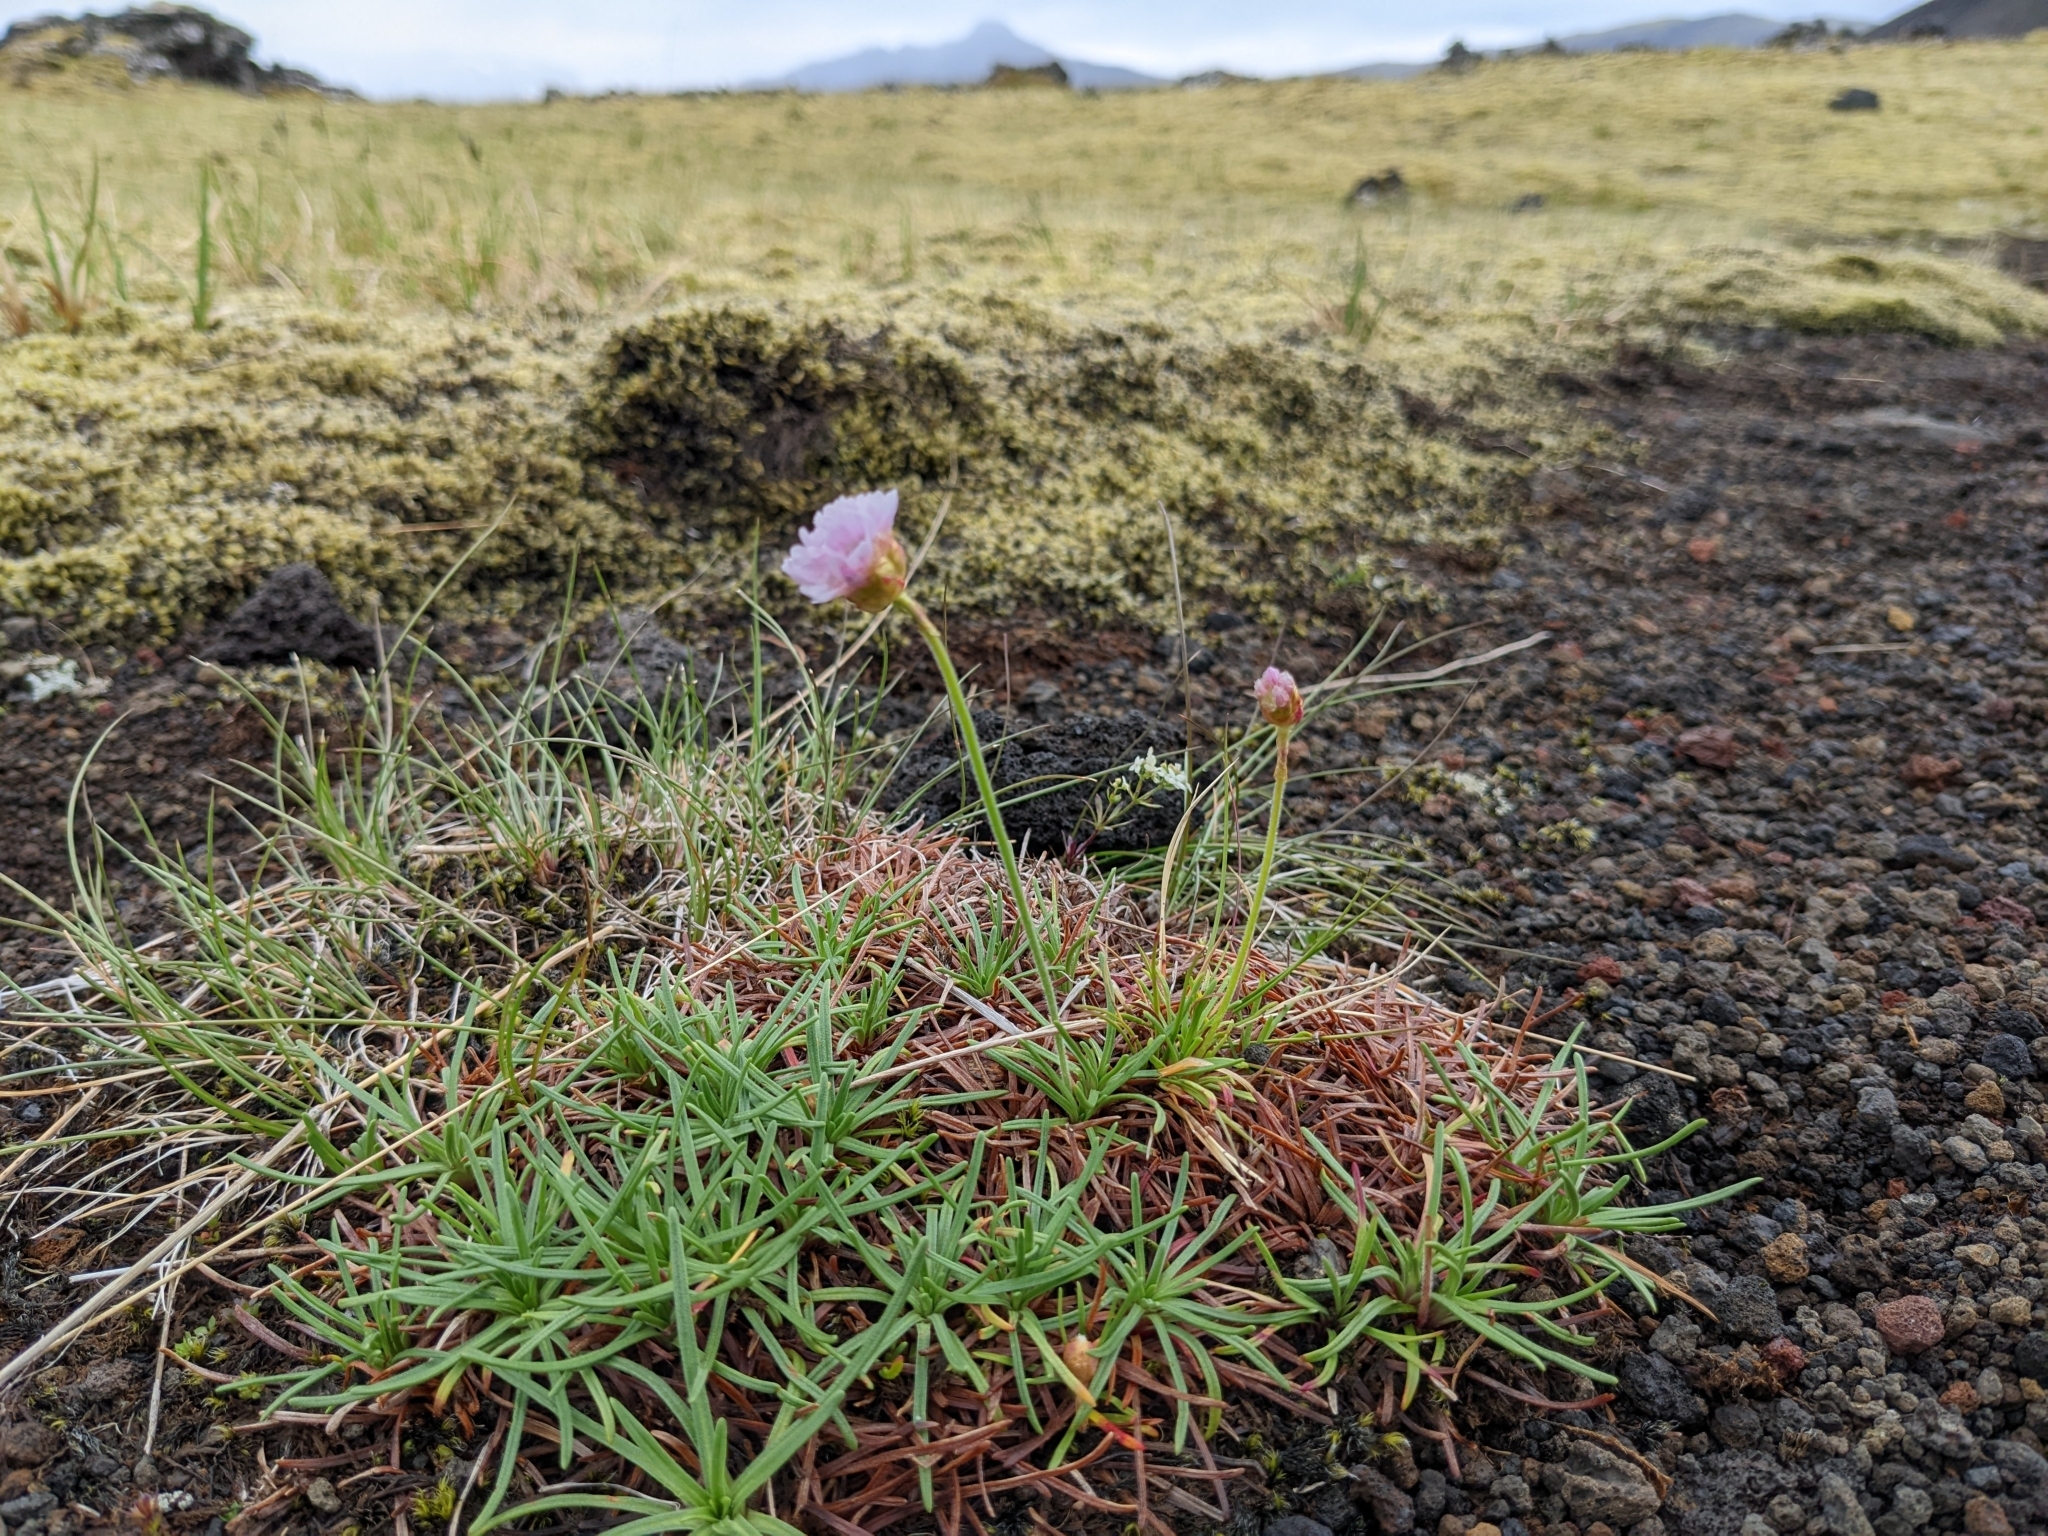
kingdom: Plantae
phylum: Tracheophyta
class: Magnoliopsida
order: Caryophyllales
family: Plumbaginaceae
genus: Armeria
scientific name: Armeria maritima
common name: Thrift
